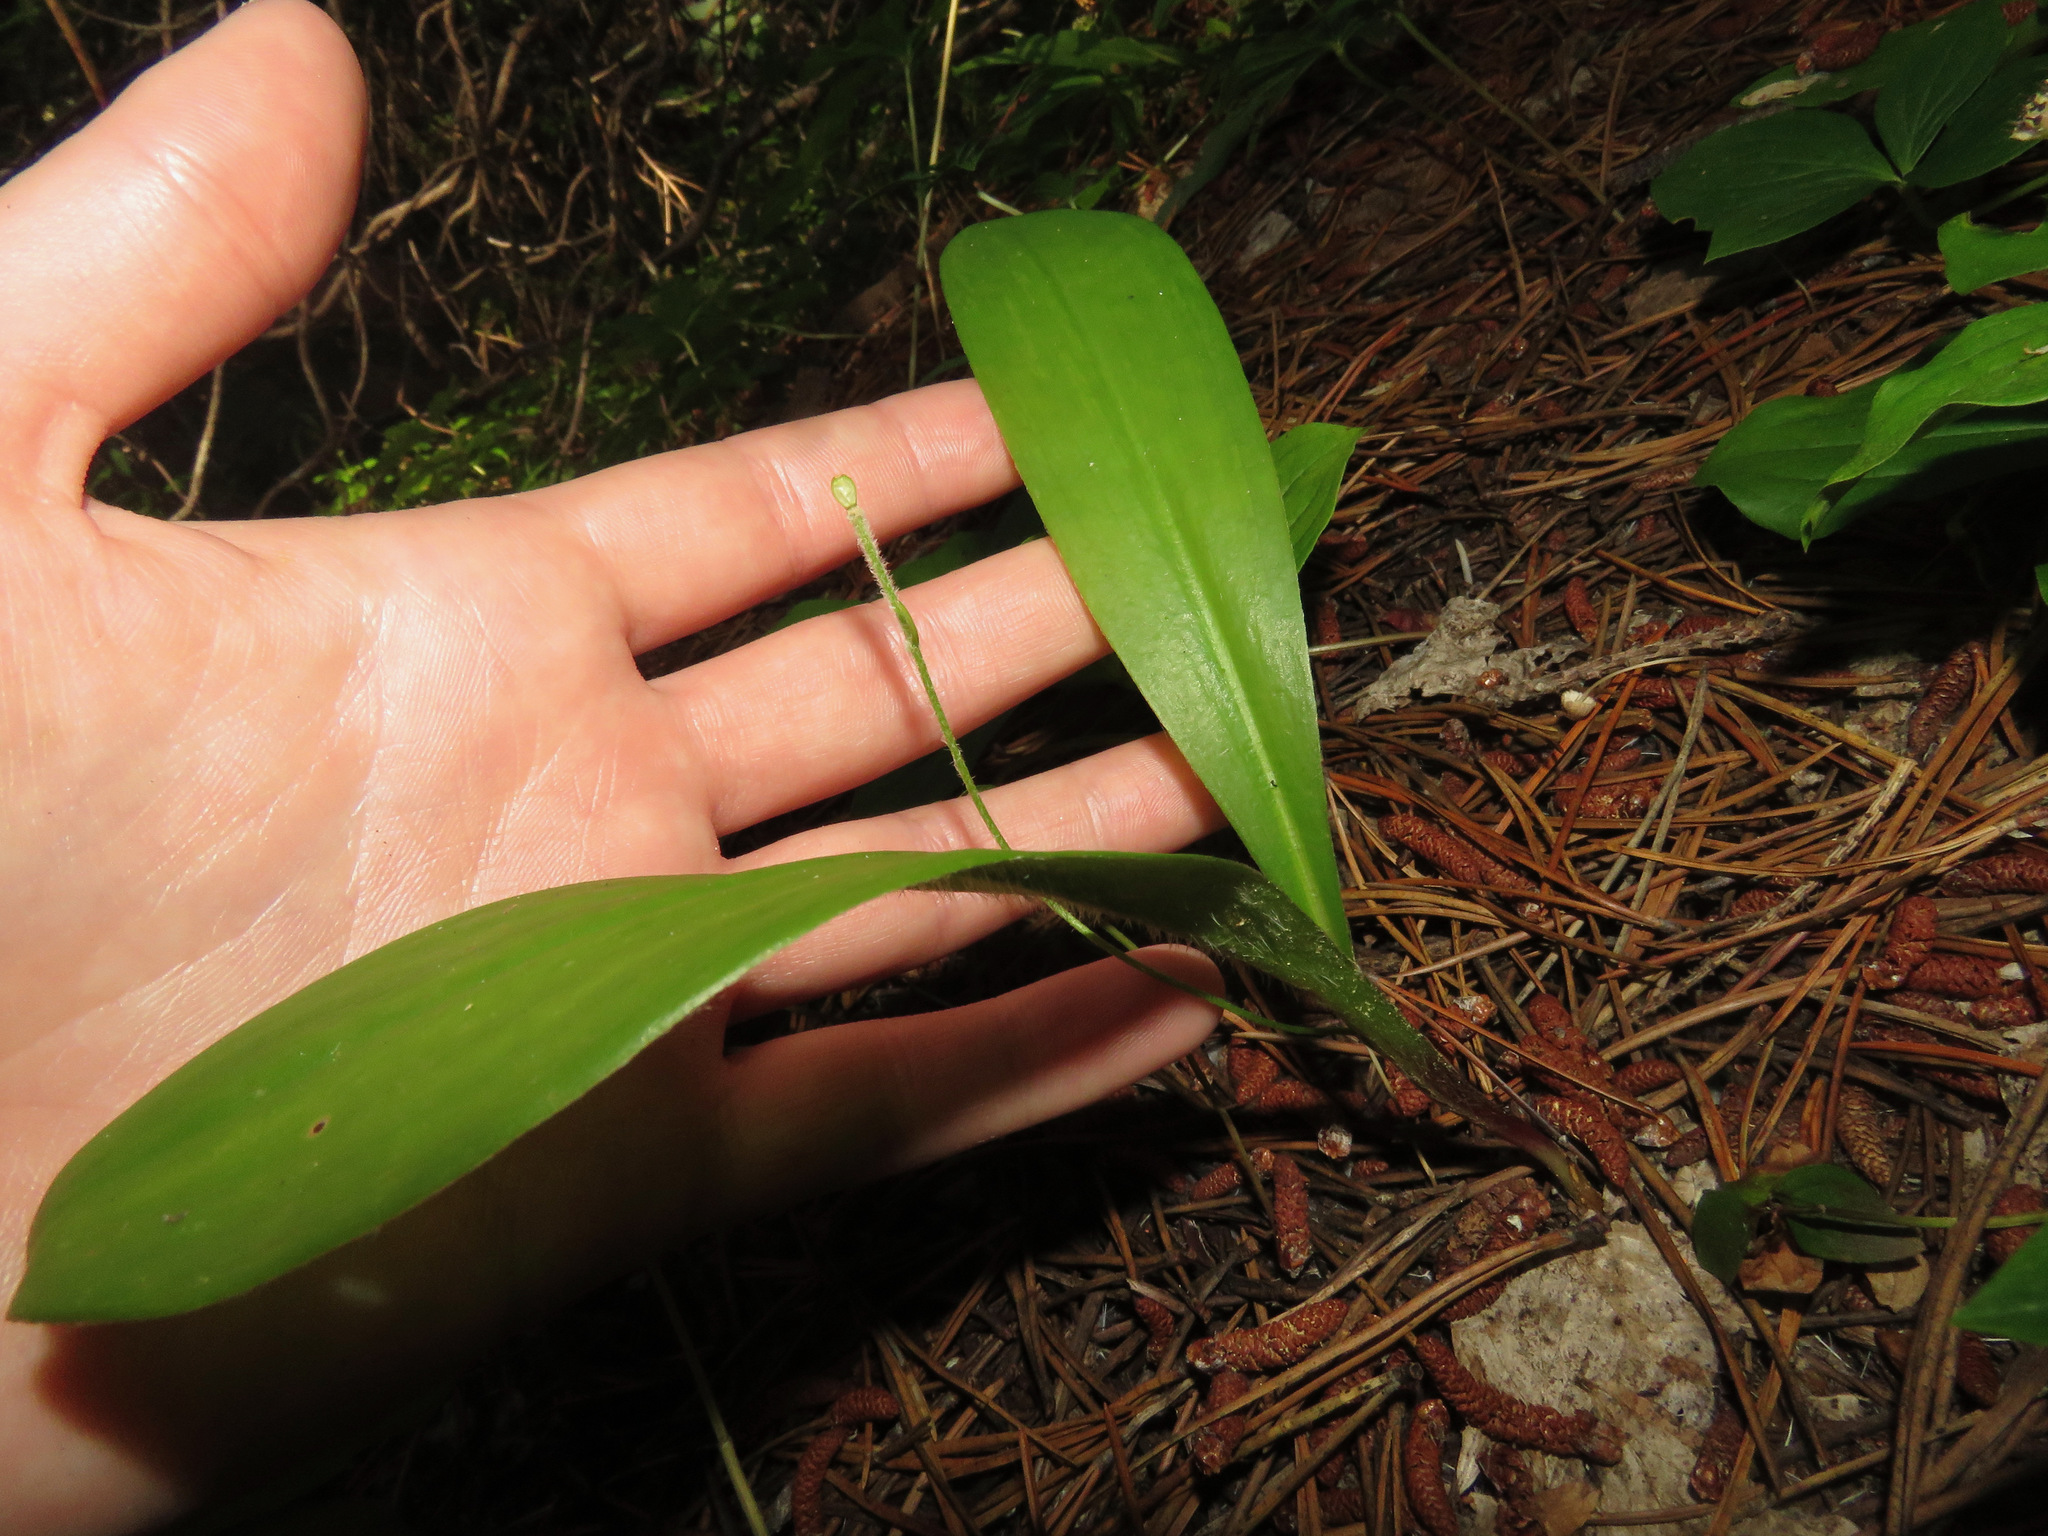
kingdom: Plantae
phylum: Tracheophyta
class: Liliopsida
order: Liliales
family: Liliaceae
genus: Clintonia
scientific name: Clintonia uniflora
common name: Queen's cup
